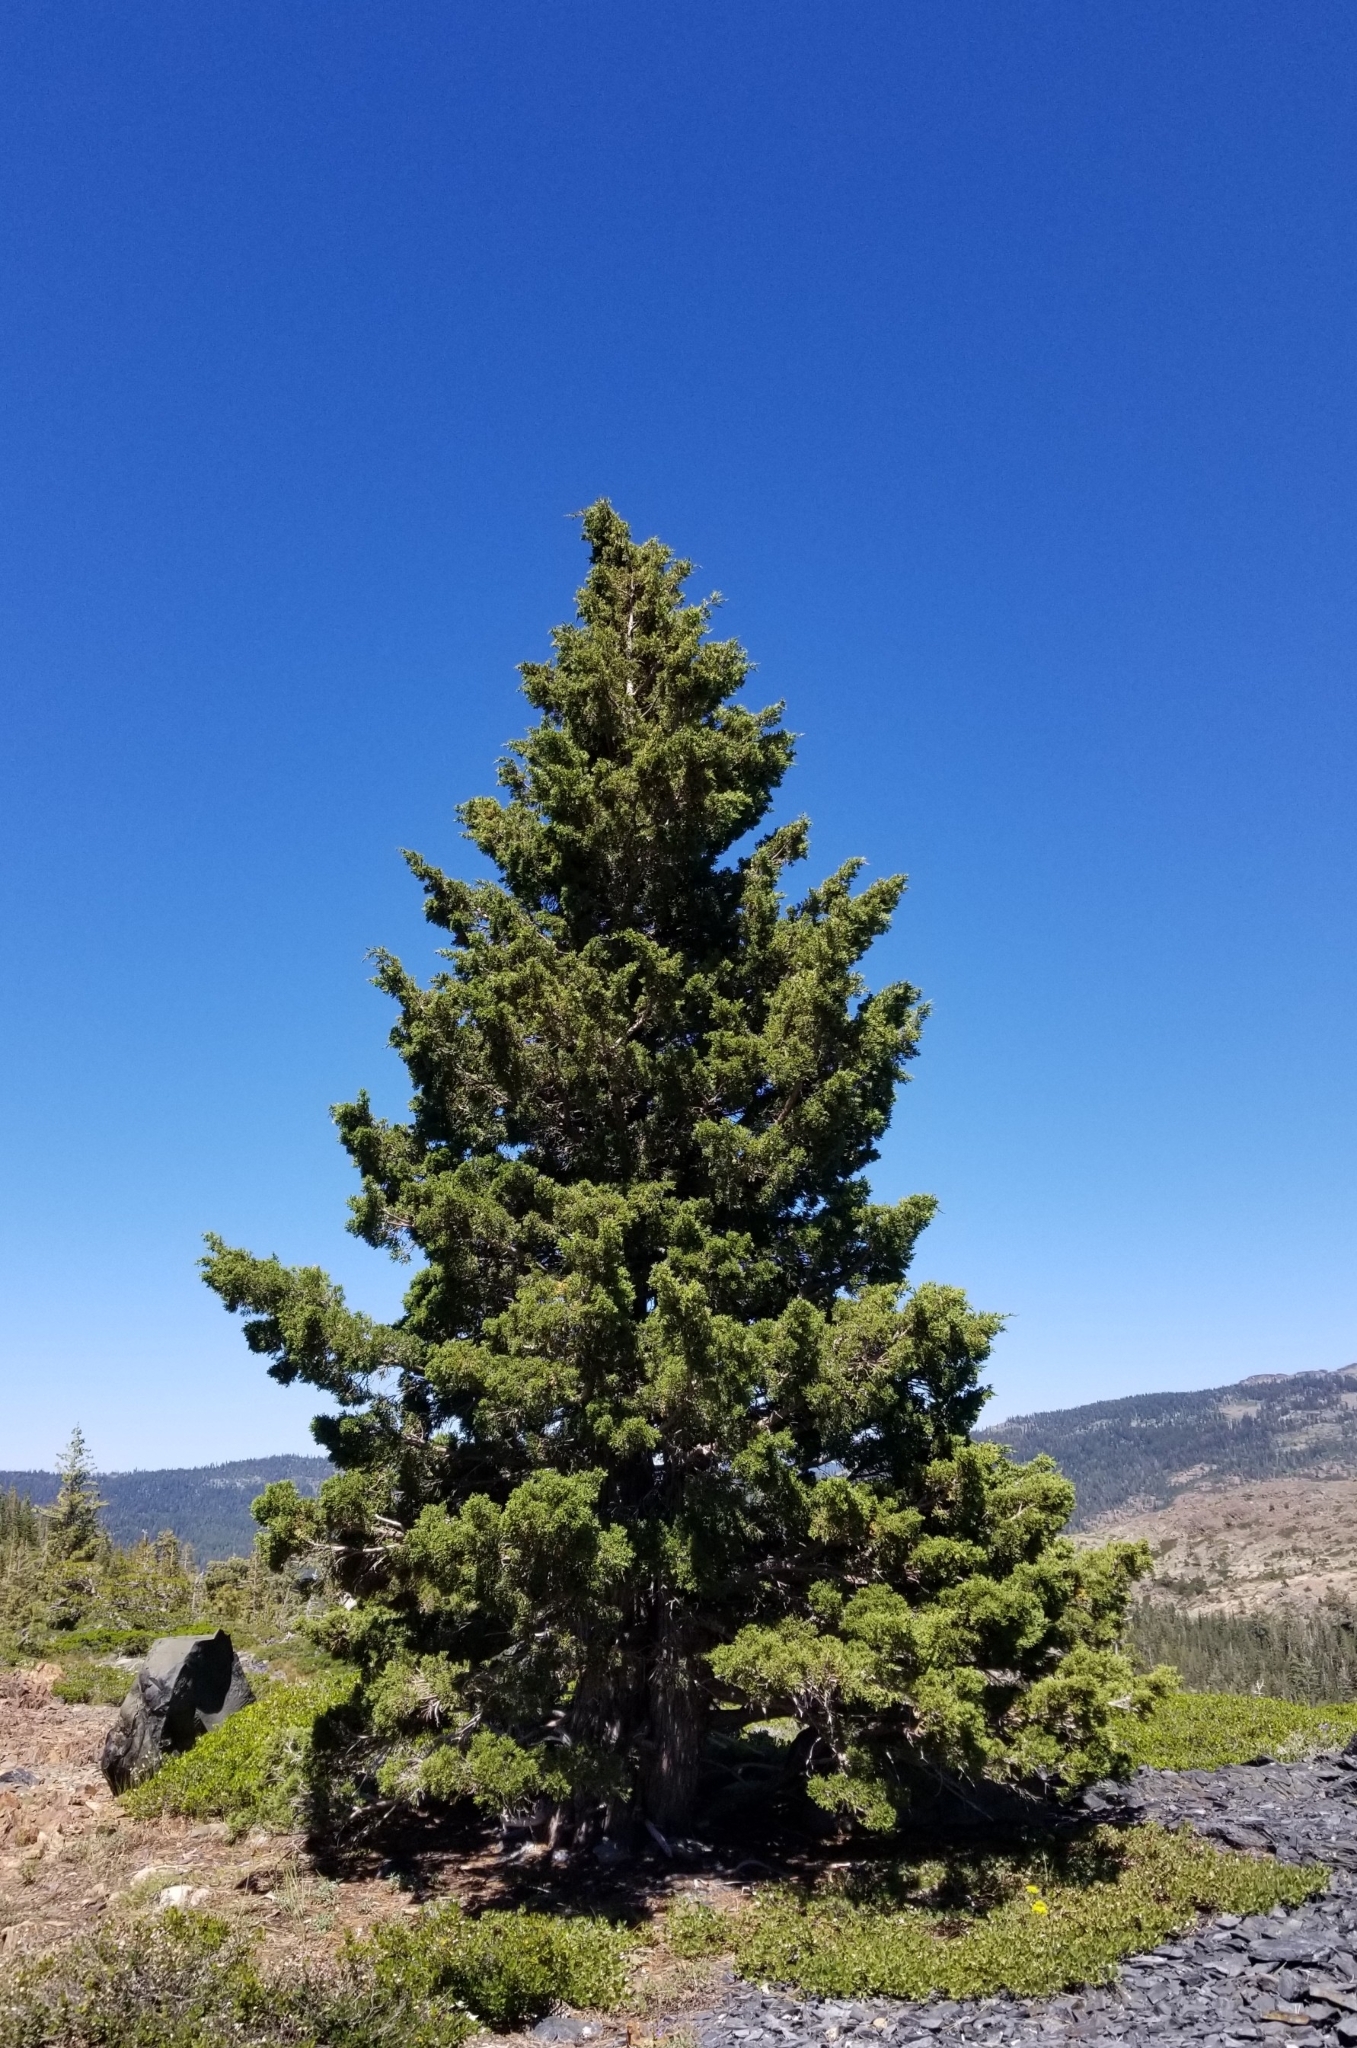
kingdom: Plantae
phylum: Tracheophyta
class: Pinopsida
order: Pinales
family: Cupressaceae
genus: Juniperus
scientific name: Juniperus occidentalis
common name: Western juniper
